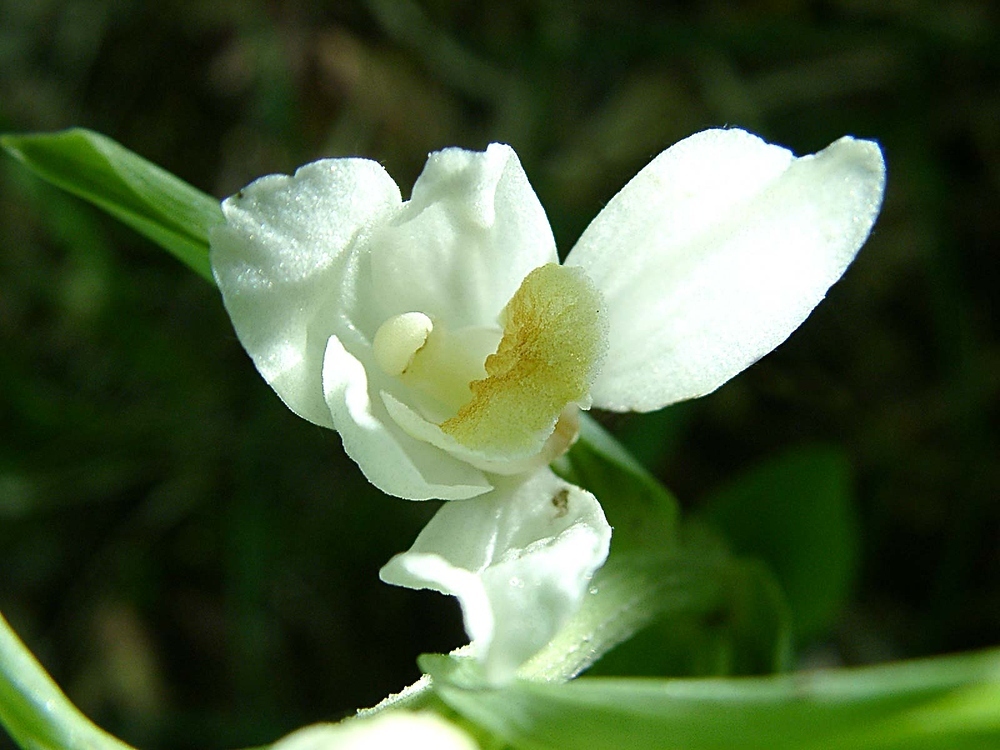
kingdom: Plantae
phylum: Tracheophyta
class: Liliopsida
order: Asparagales
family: Orchidaceae
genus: Cephalanthera
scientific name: Cephalanthera damasonium
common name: White helleborine
